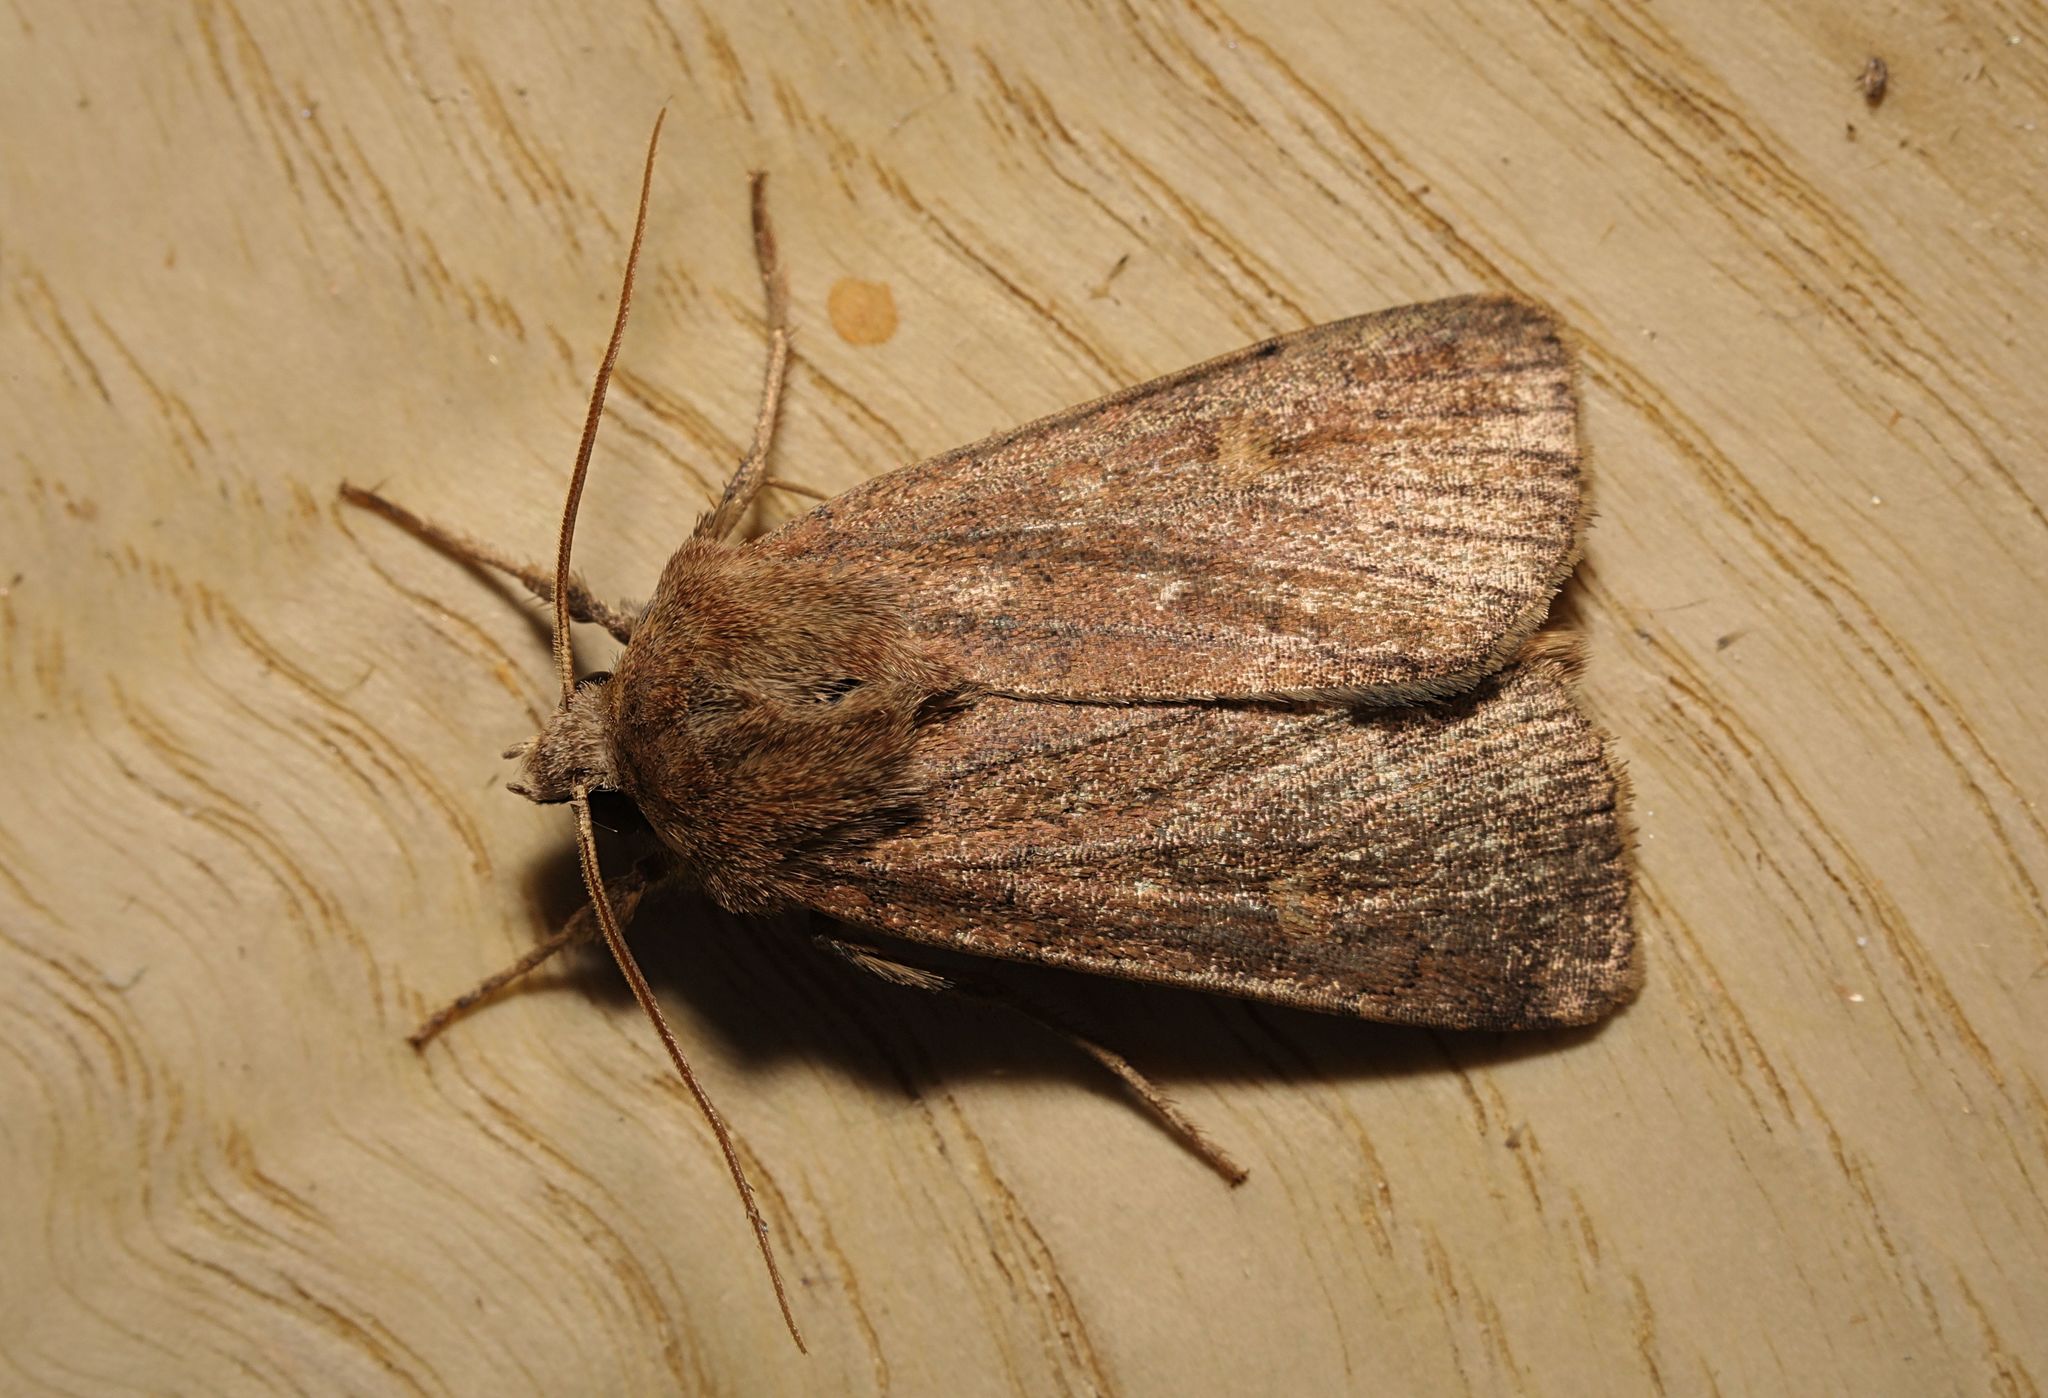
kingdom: Animalia
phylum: Arthropoda
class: Insecta
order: Lepidoptera
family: Noctuidae
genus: Xestia
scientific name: Xestia xanthographa
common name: Square-spot rustic
